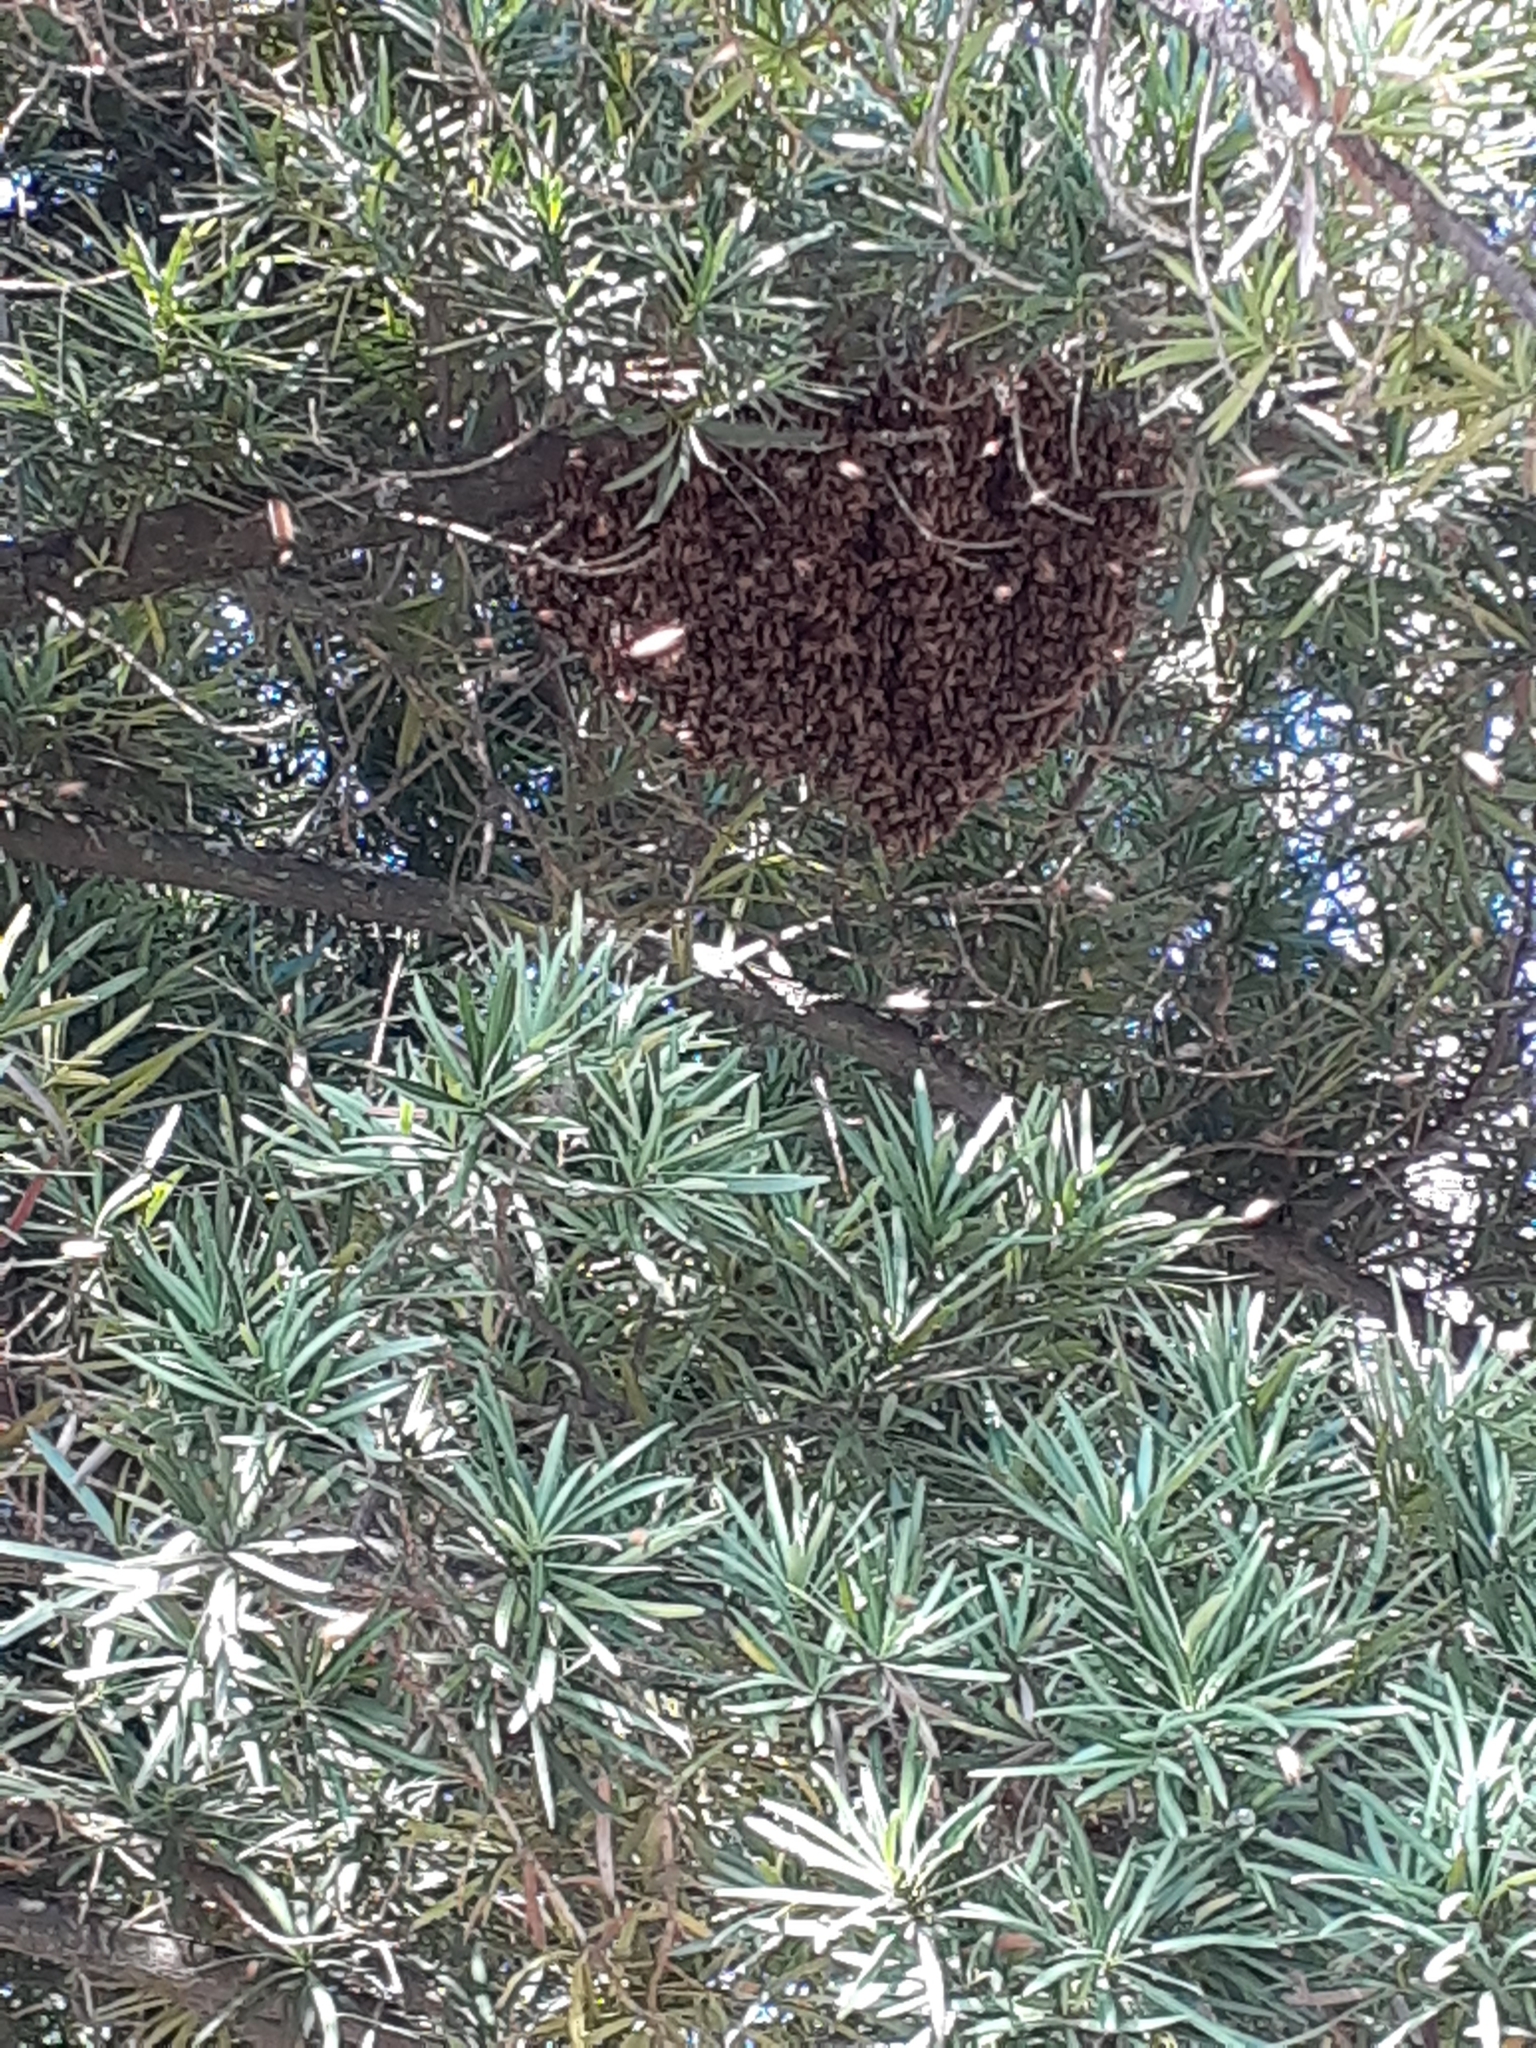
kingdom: Animalia
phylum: Arthropoda
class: Insecta
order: Hymenoptera
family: Apidae
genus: Apis
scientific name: Apis cerana
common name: Honey bee
